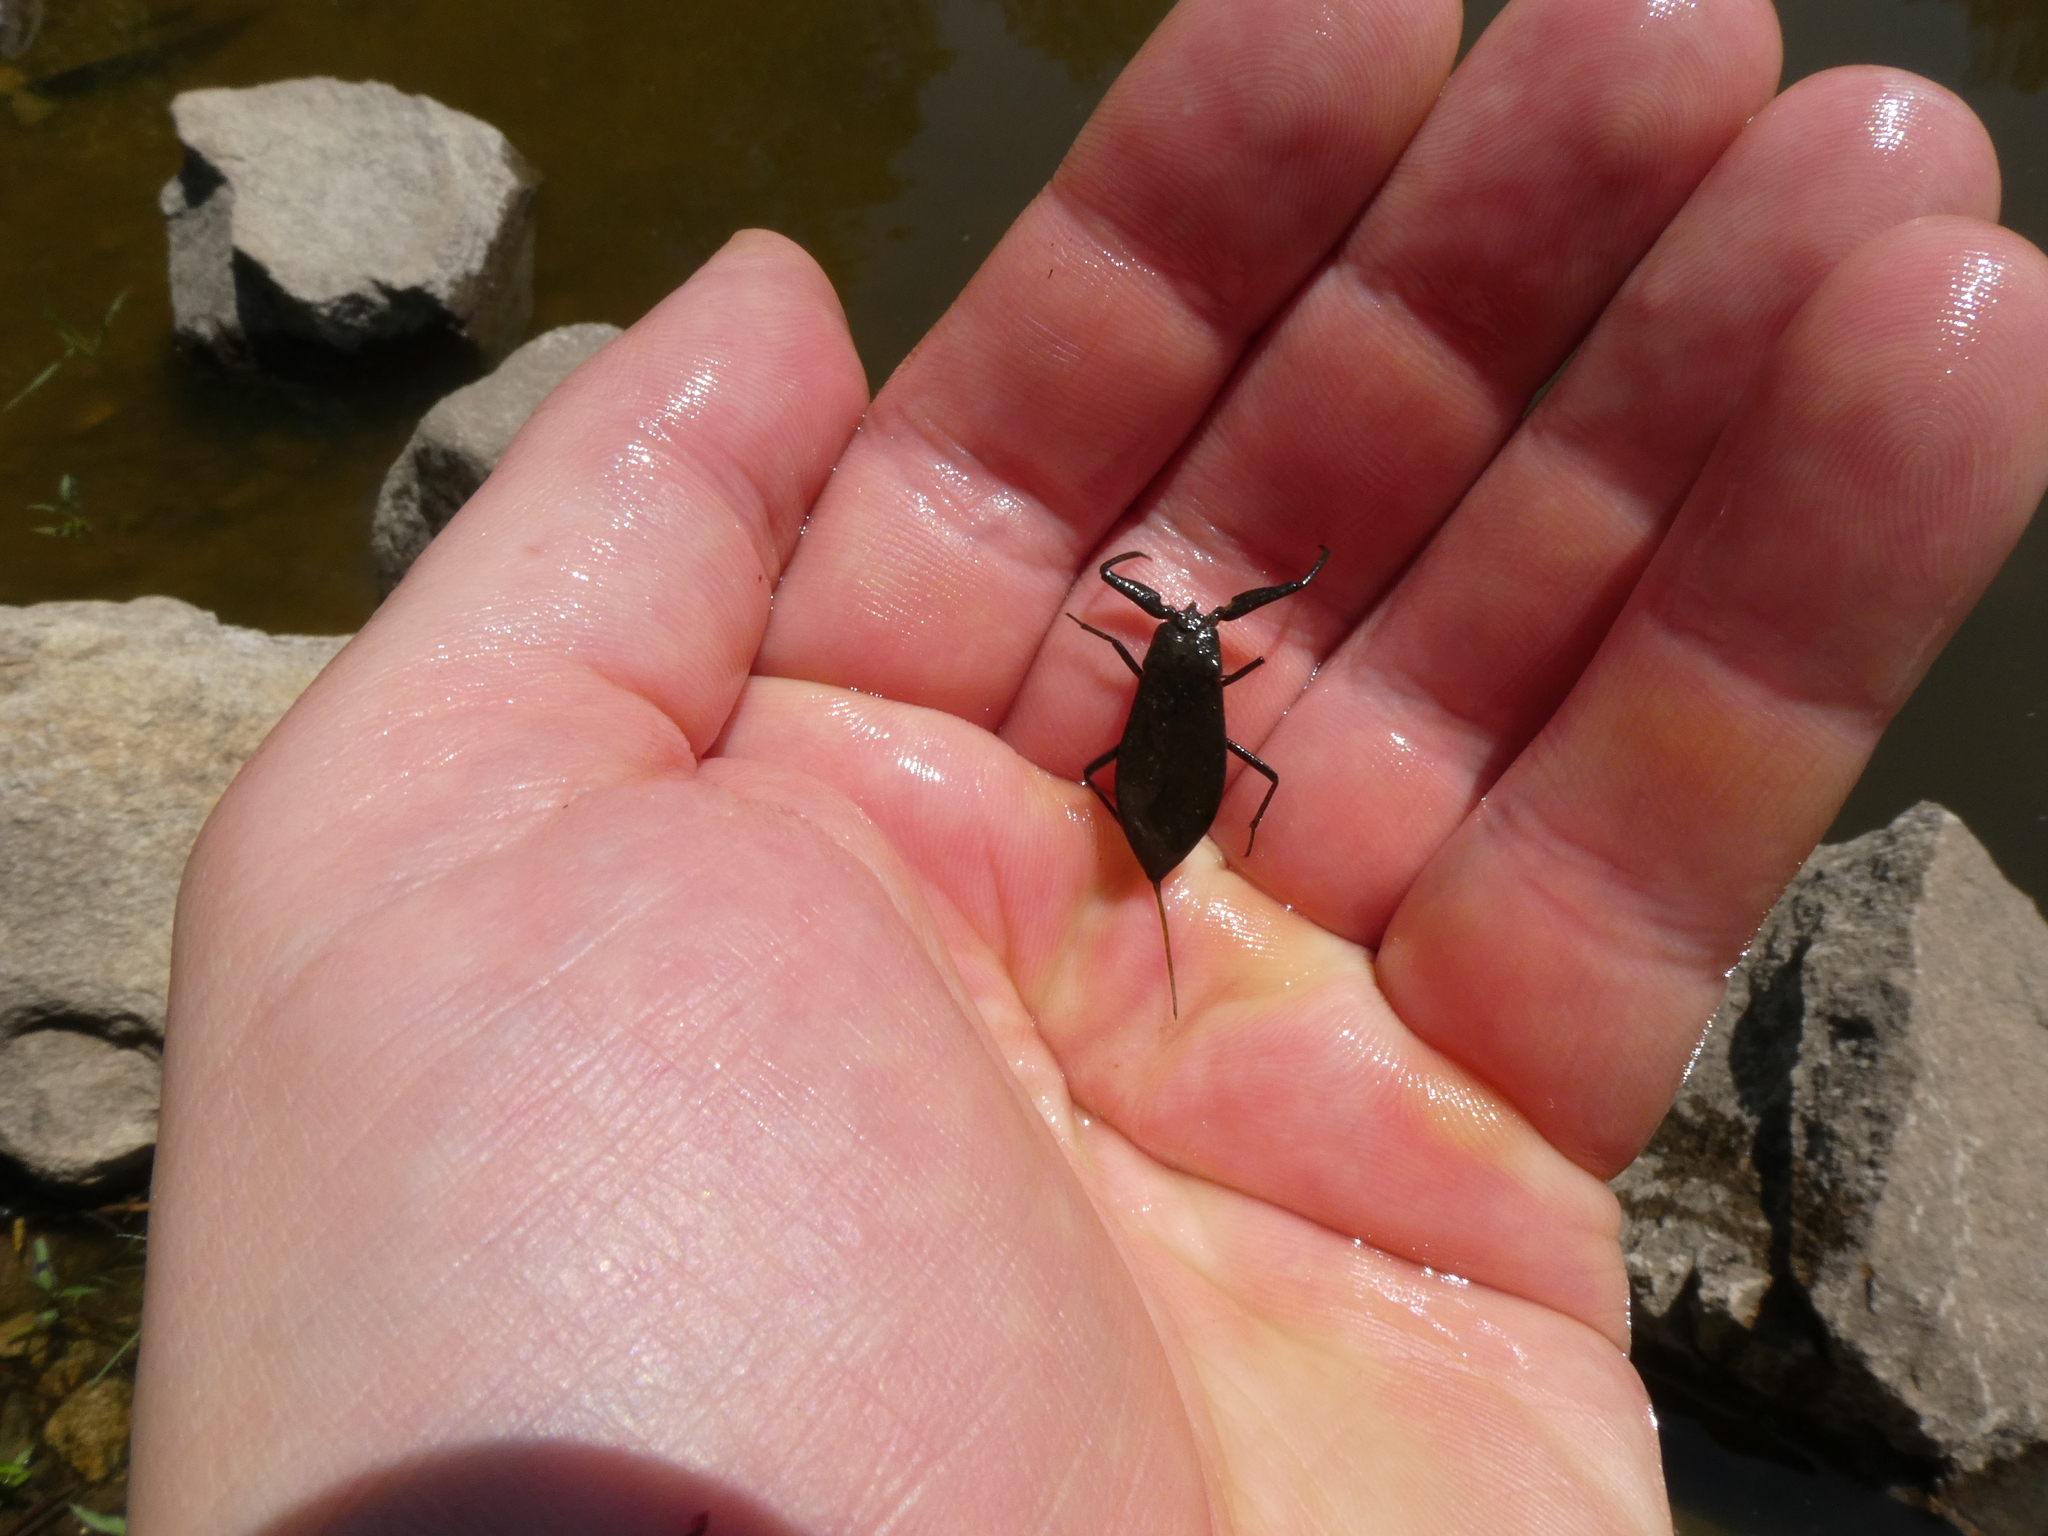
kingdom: Animalia
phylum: Arthropoda
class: Insecta
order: Hemiptera
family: Nepidae
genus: Nepa
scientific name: Nepa cinerea
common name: Water scorpion
